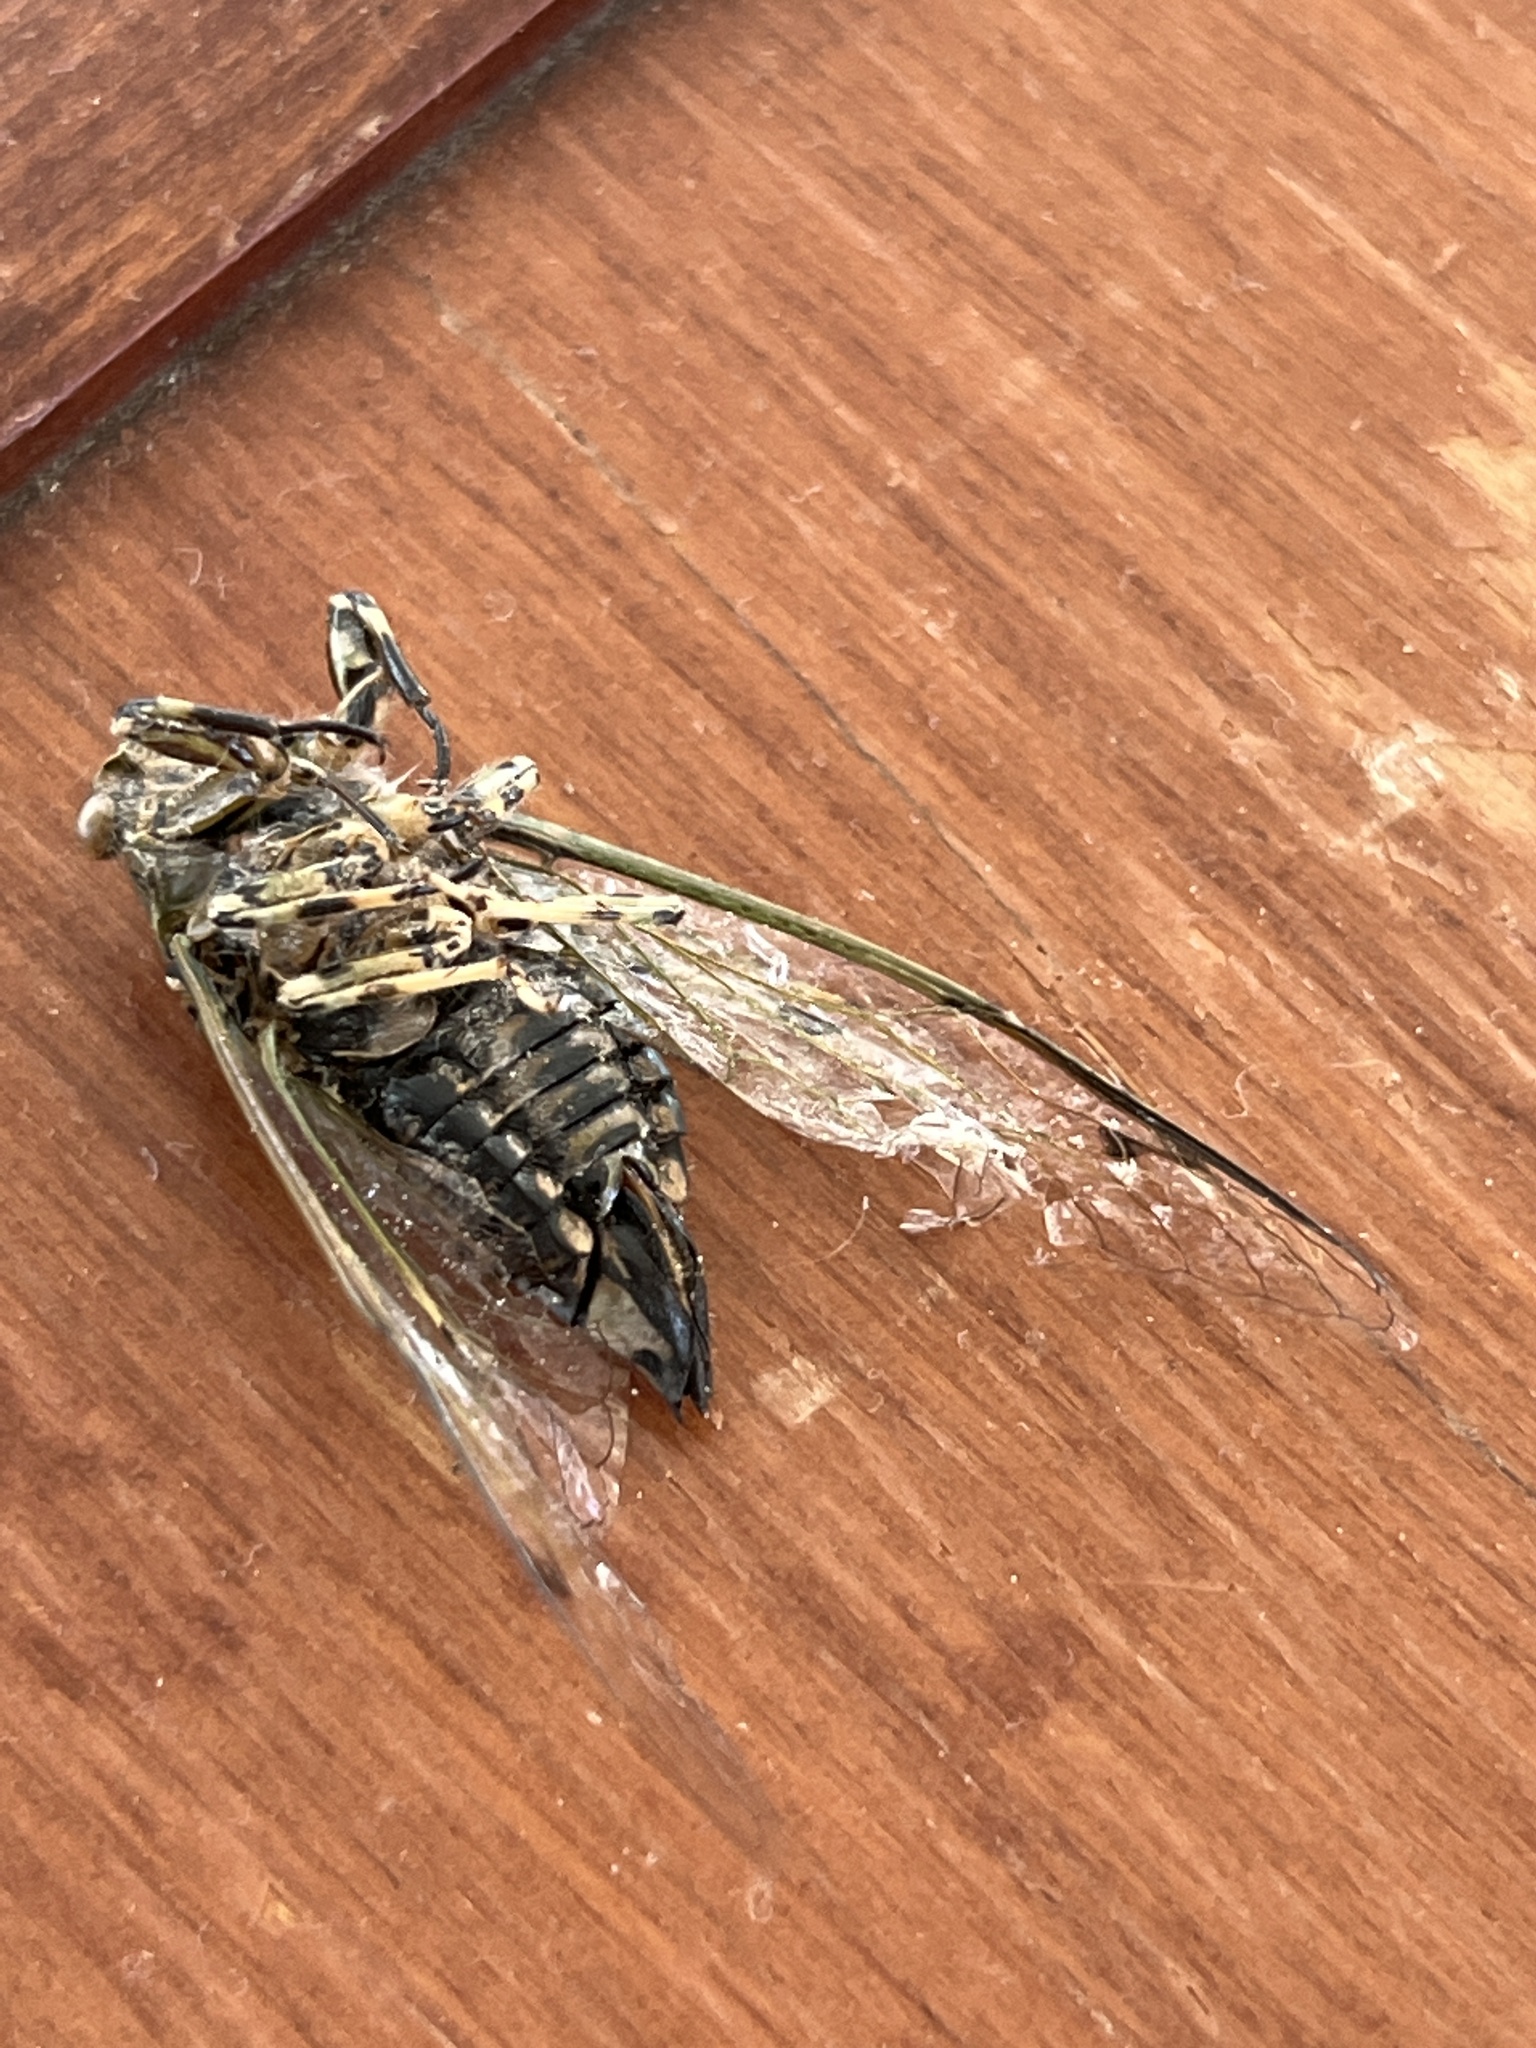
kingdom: Animalia
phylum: Arthropoda
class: Insecta
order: Hemiptera
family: Cicadidae
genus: Amphipsalta
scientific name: Amphipsalta cingulata
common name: Clapping cicada
